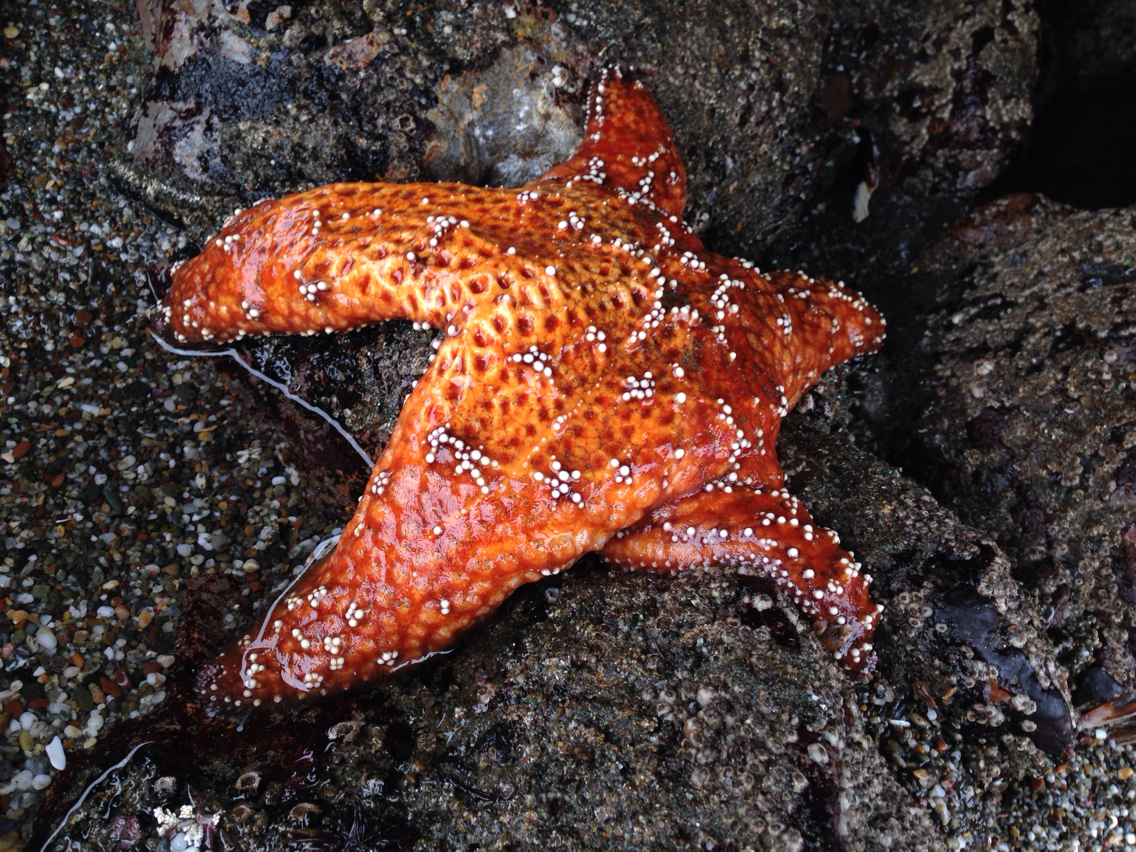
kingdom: Animalia
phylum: Echinodermata
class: Asteroidea
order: Forcipulatida
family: Asteriidae
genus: Pisaster
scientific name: Pisaster ochraceus
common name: Ochre stars
